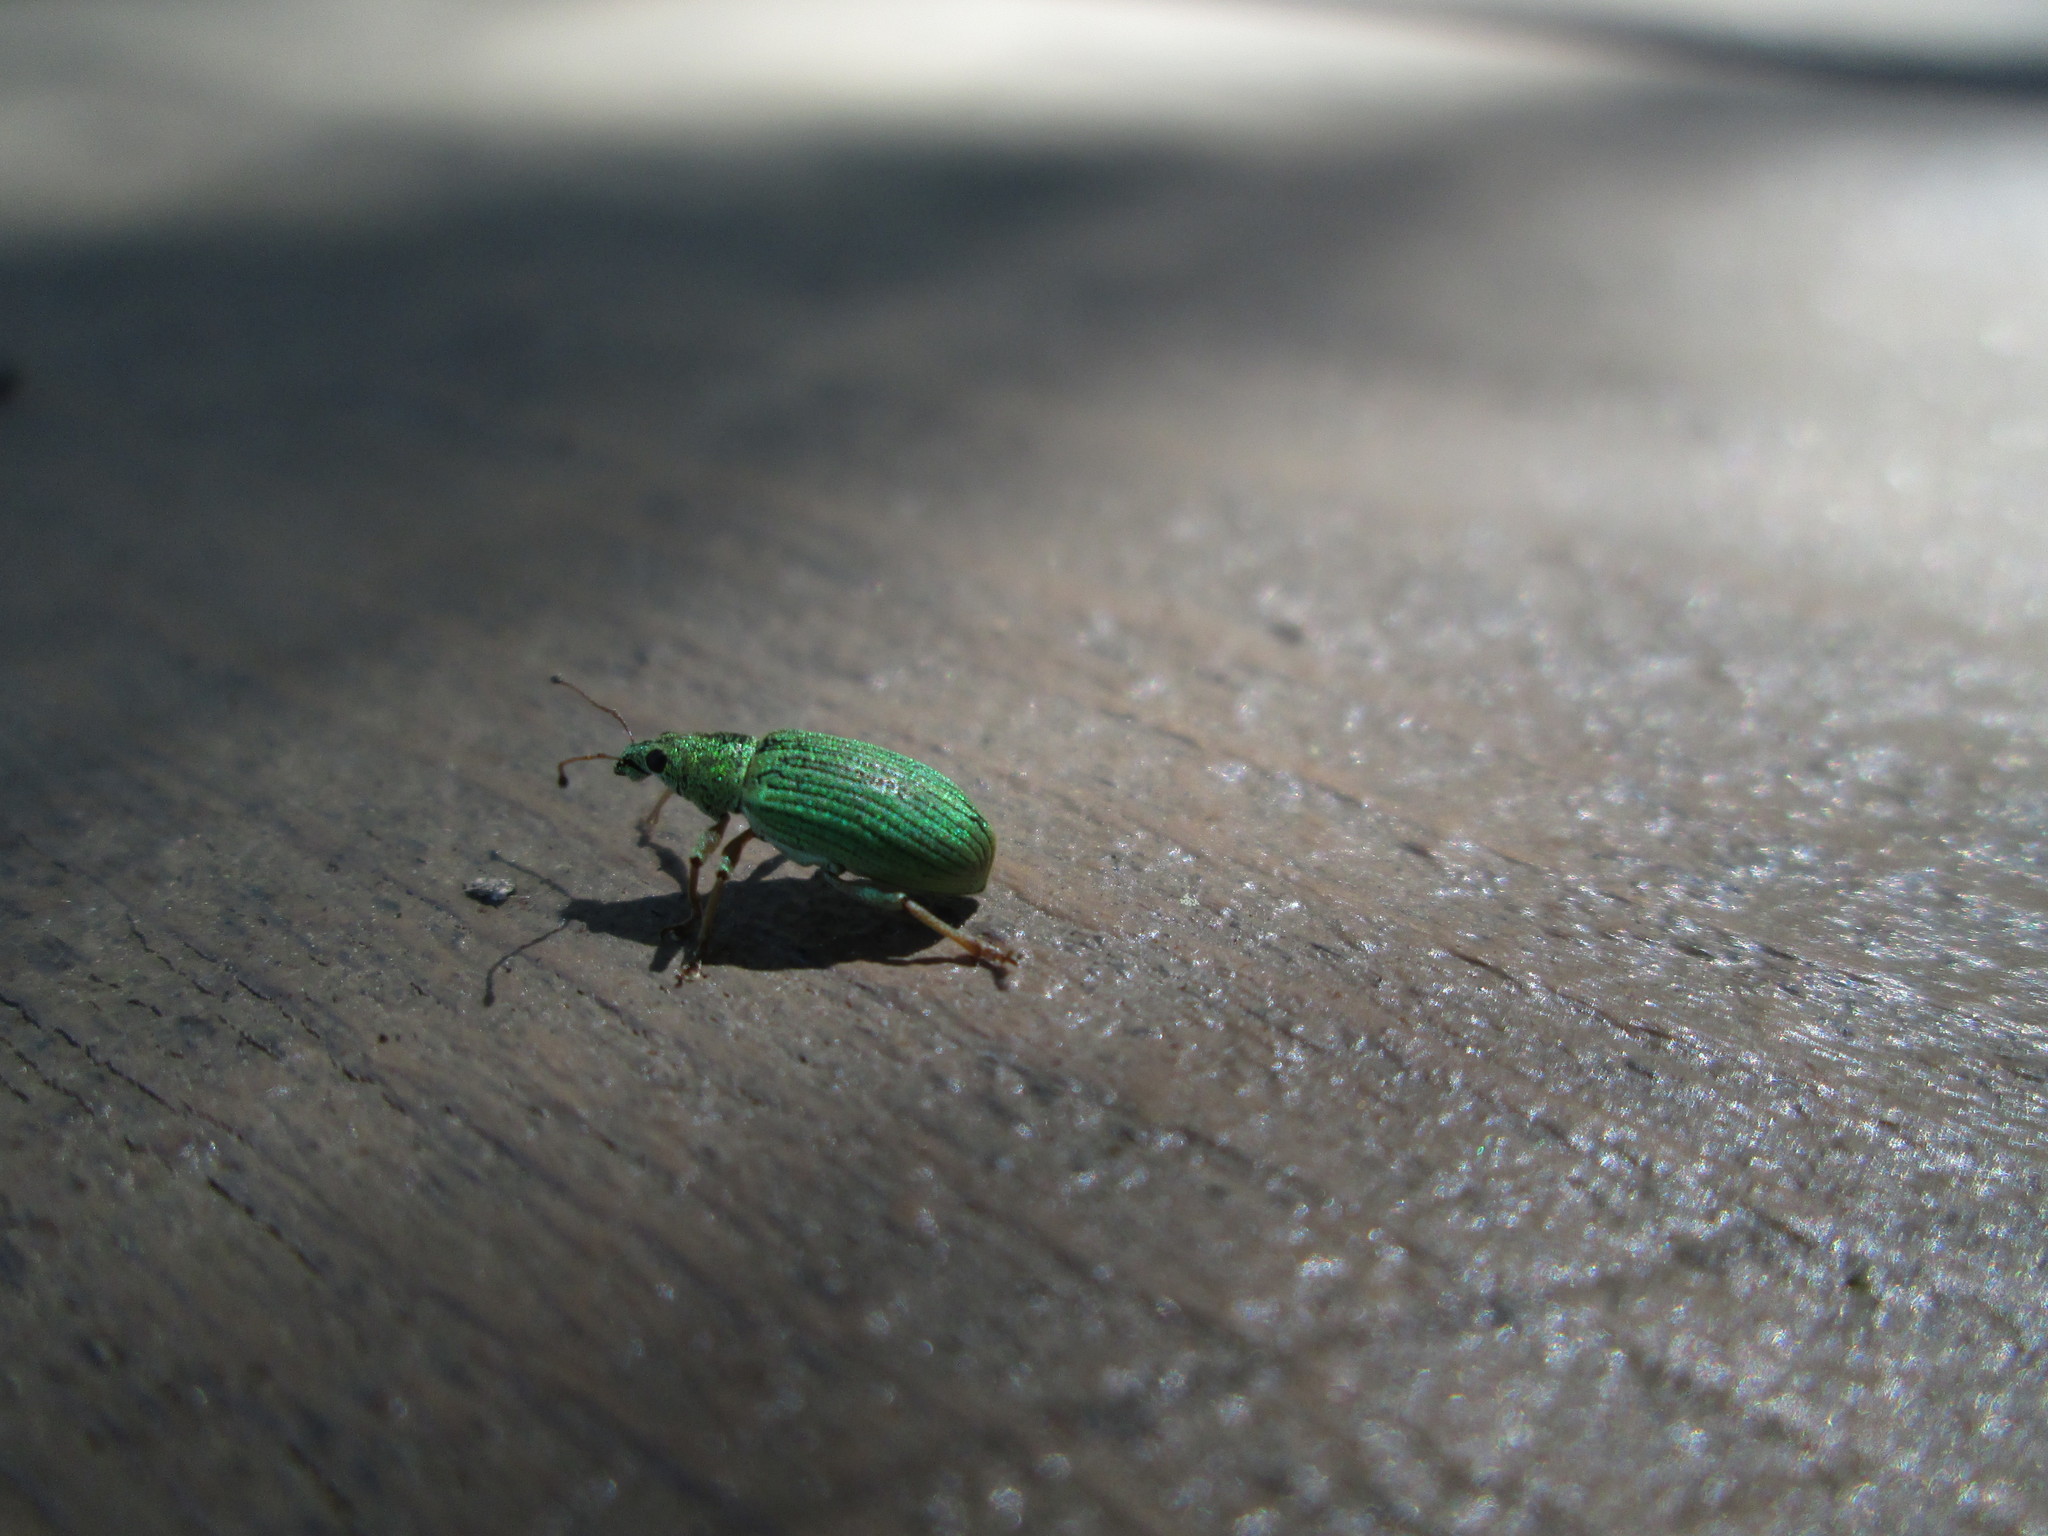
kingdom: Animalia
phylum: Arthropoda
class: Insecta
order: Coleoptera
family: Curculionidae
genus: Polydrusus
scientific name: Polydrusus formosus
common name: Weevil
